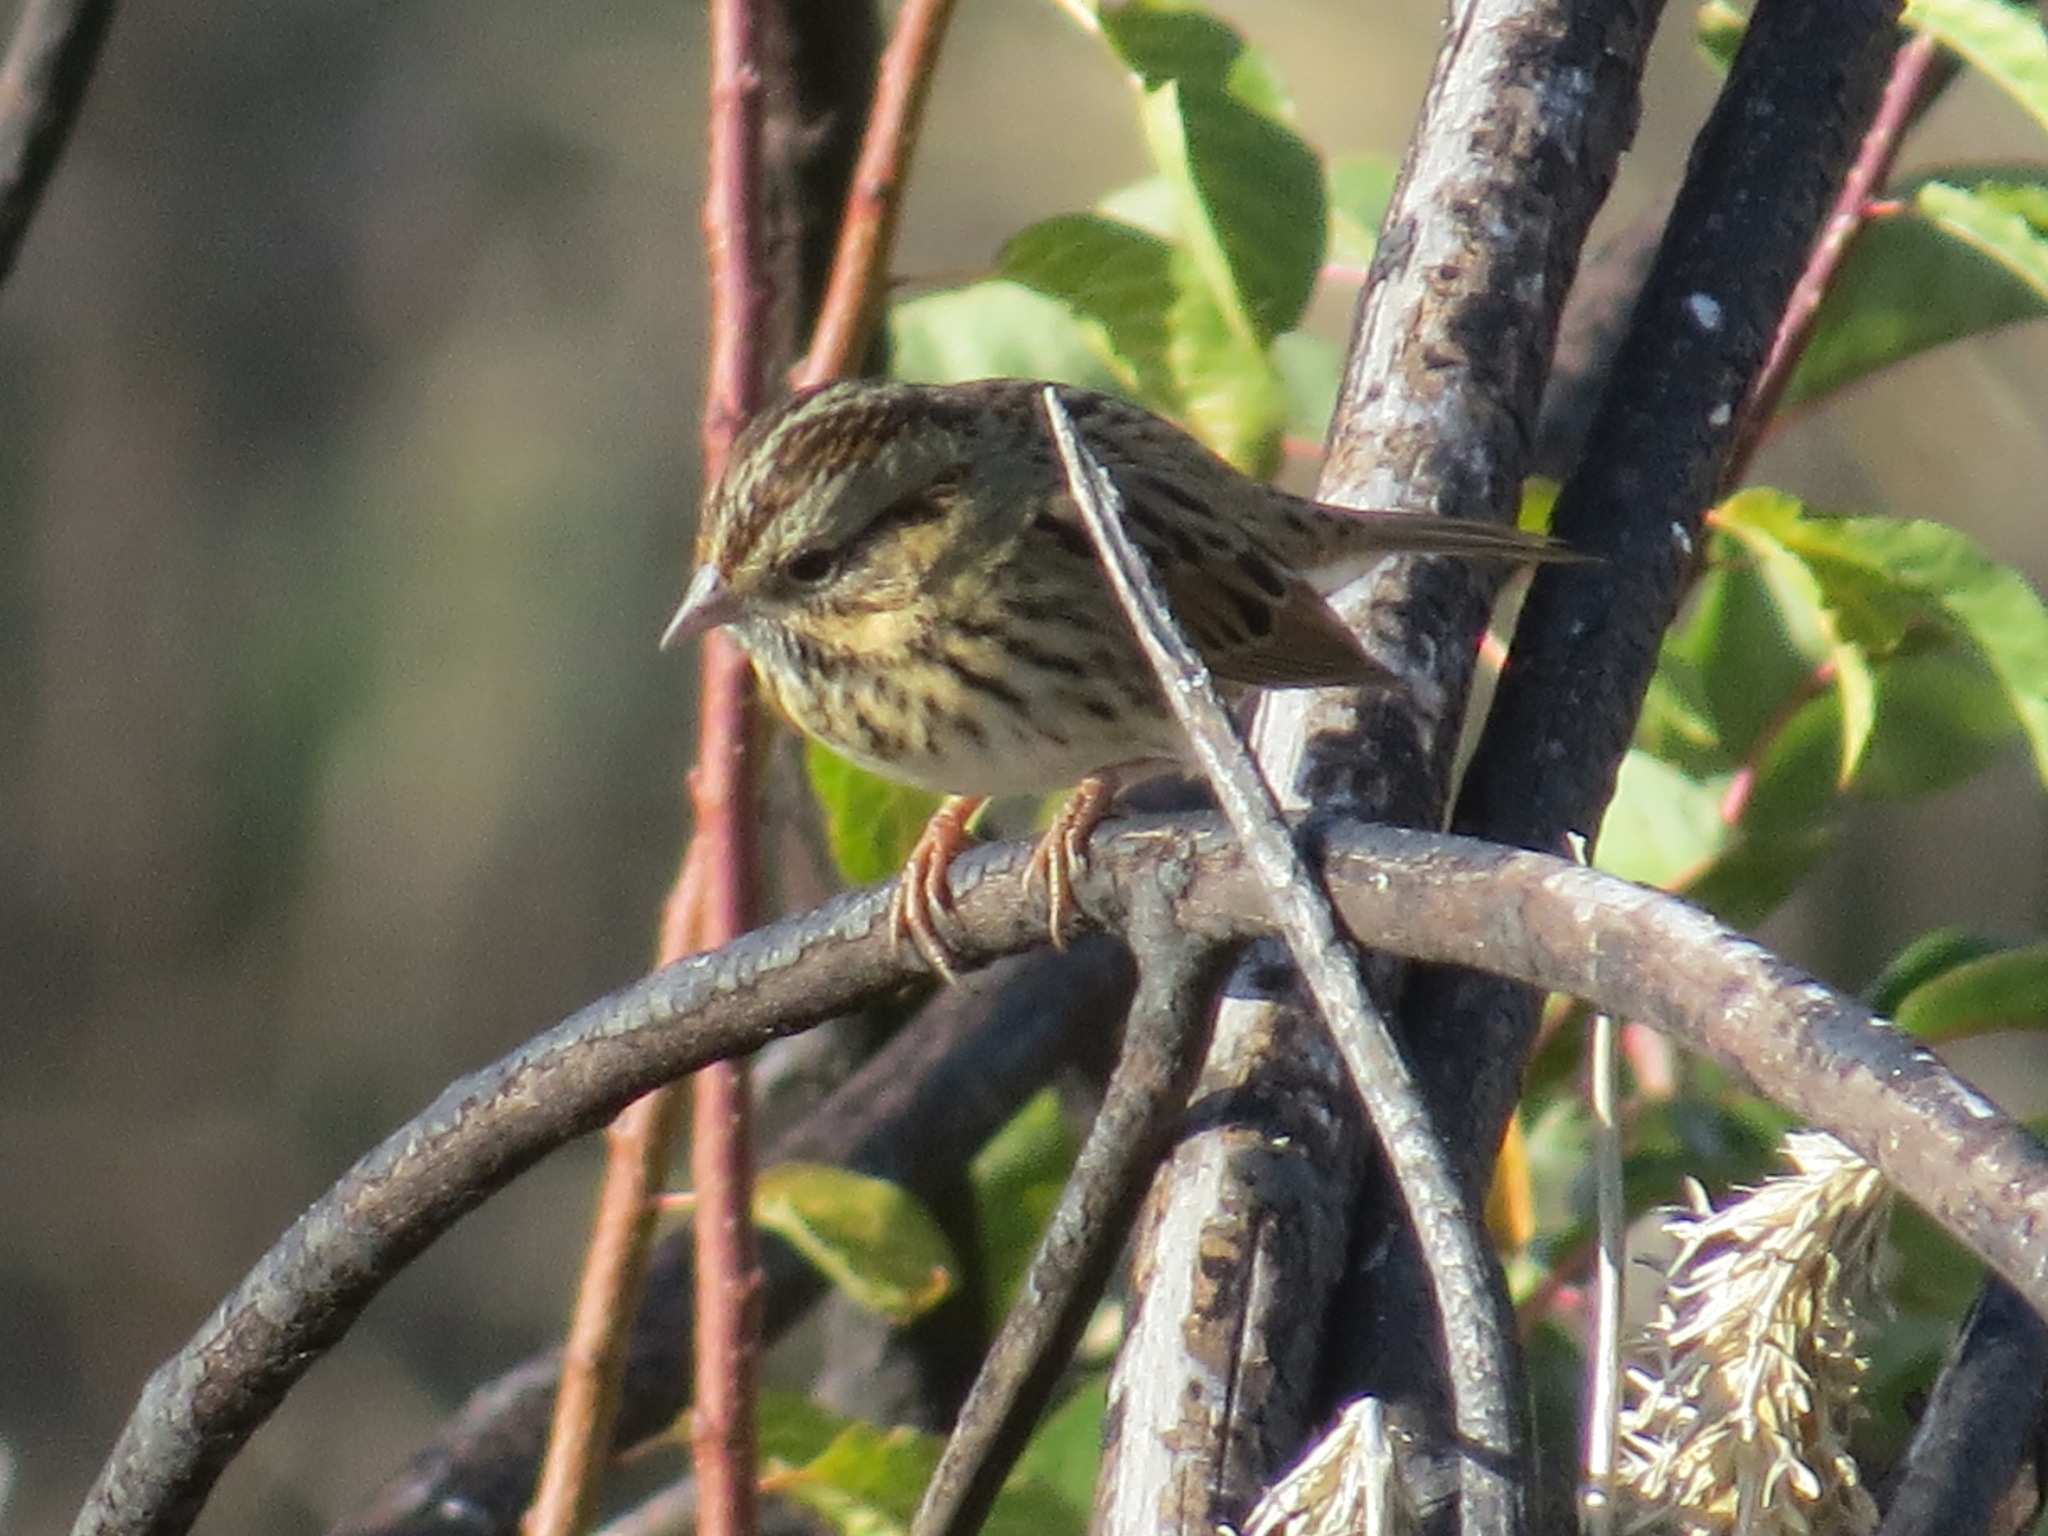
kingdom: Animalia
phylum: Chordata
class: Aves
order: Passeriformes
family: Passerellidae
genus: Melospiza
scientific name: Melospiza lincolnii
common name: Lincoln's sparrow
